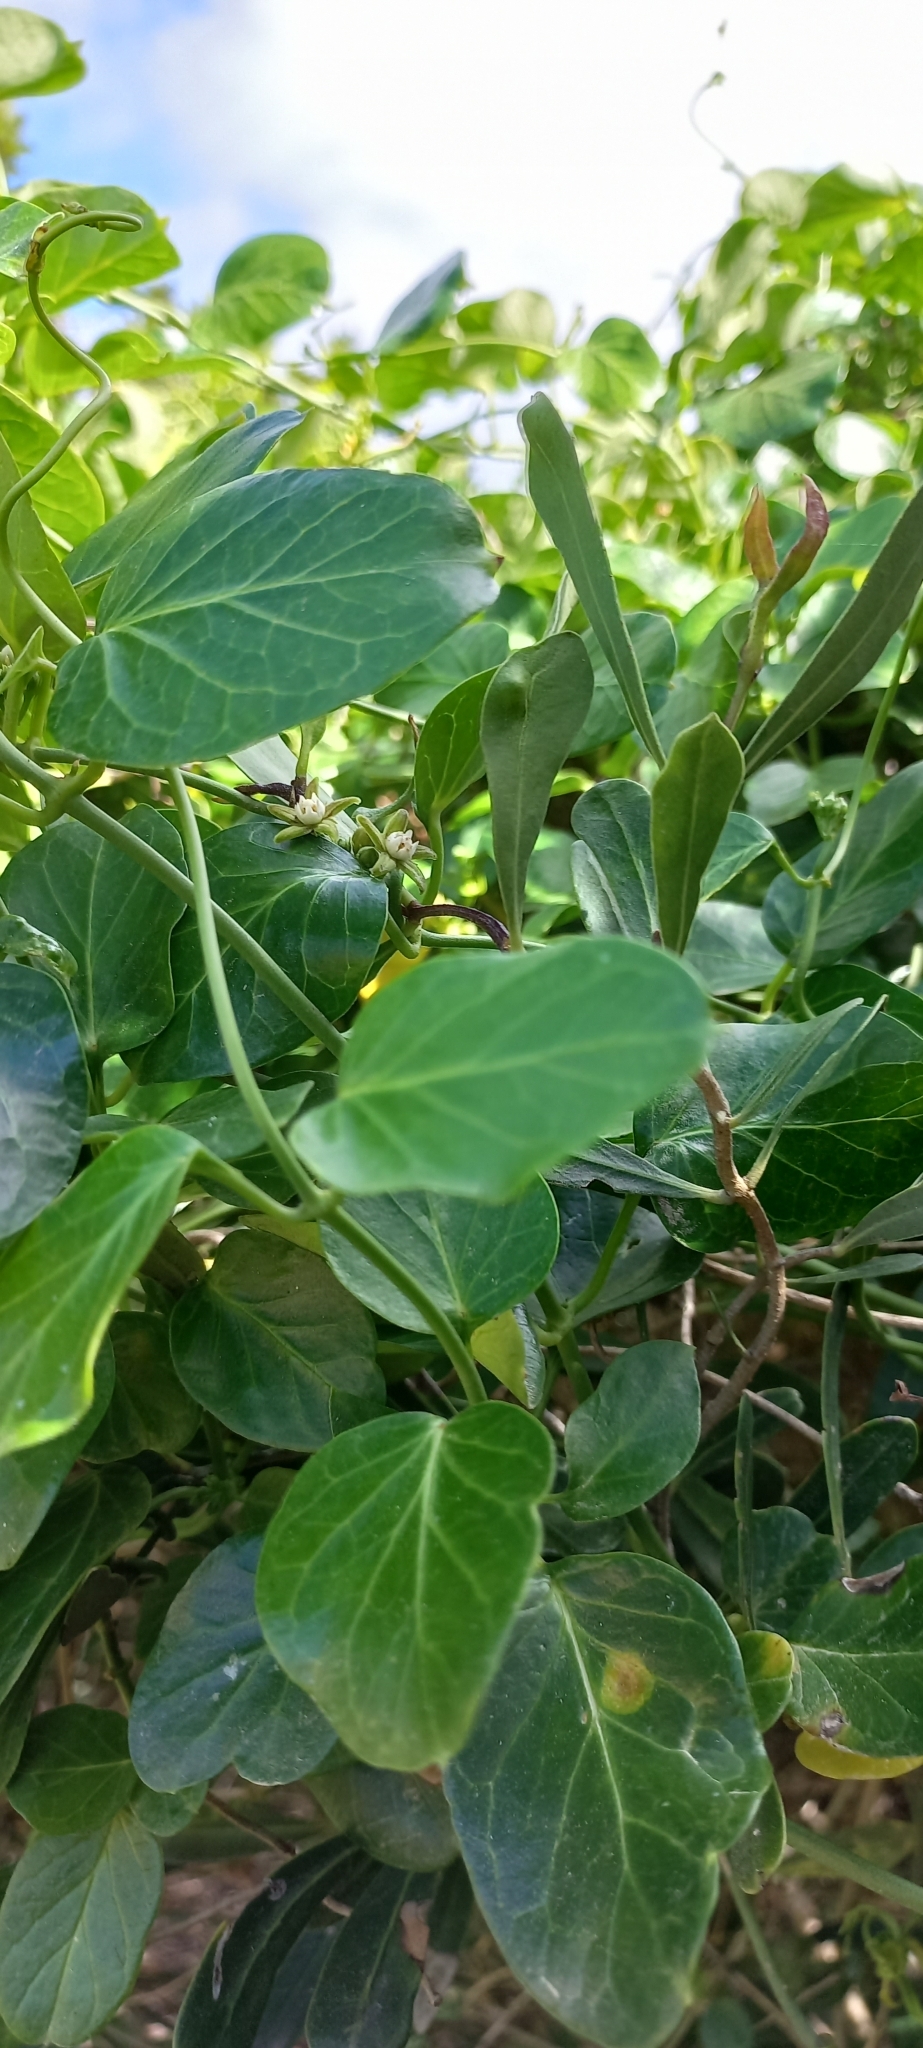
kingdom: Plantae
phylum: Tracheophyta
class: Magnoliopsida
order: Ranunculales
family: Menispermaceae
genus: Cissampelos
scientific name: Cissampelos capensis
